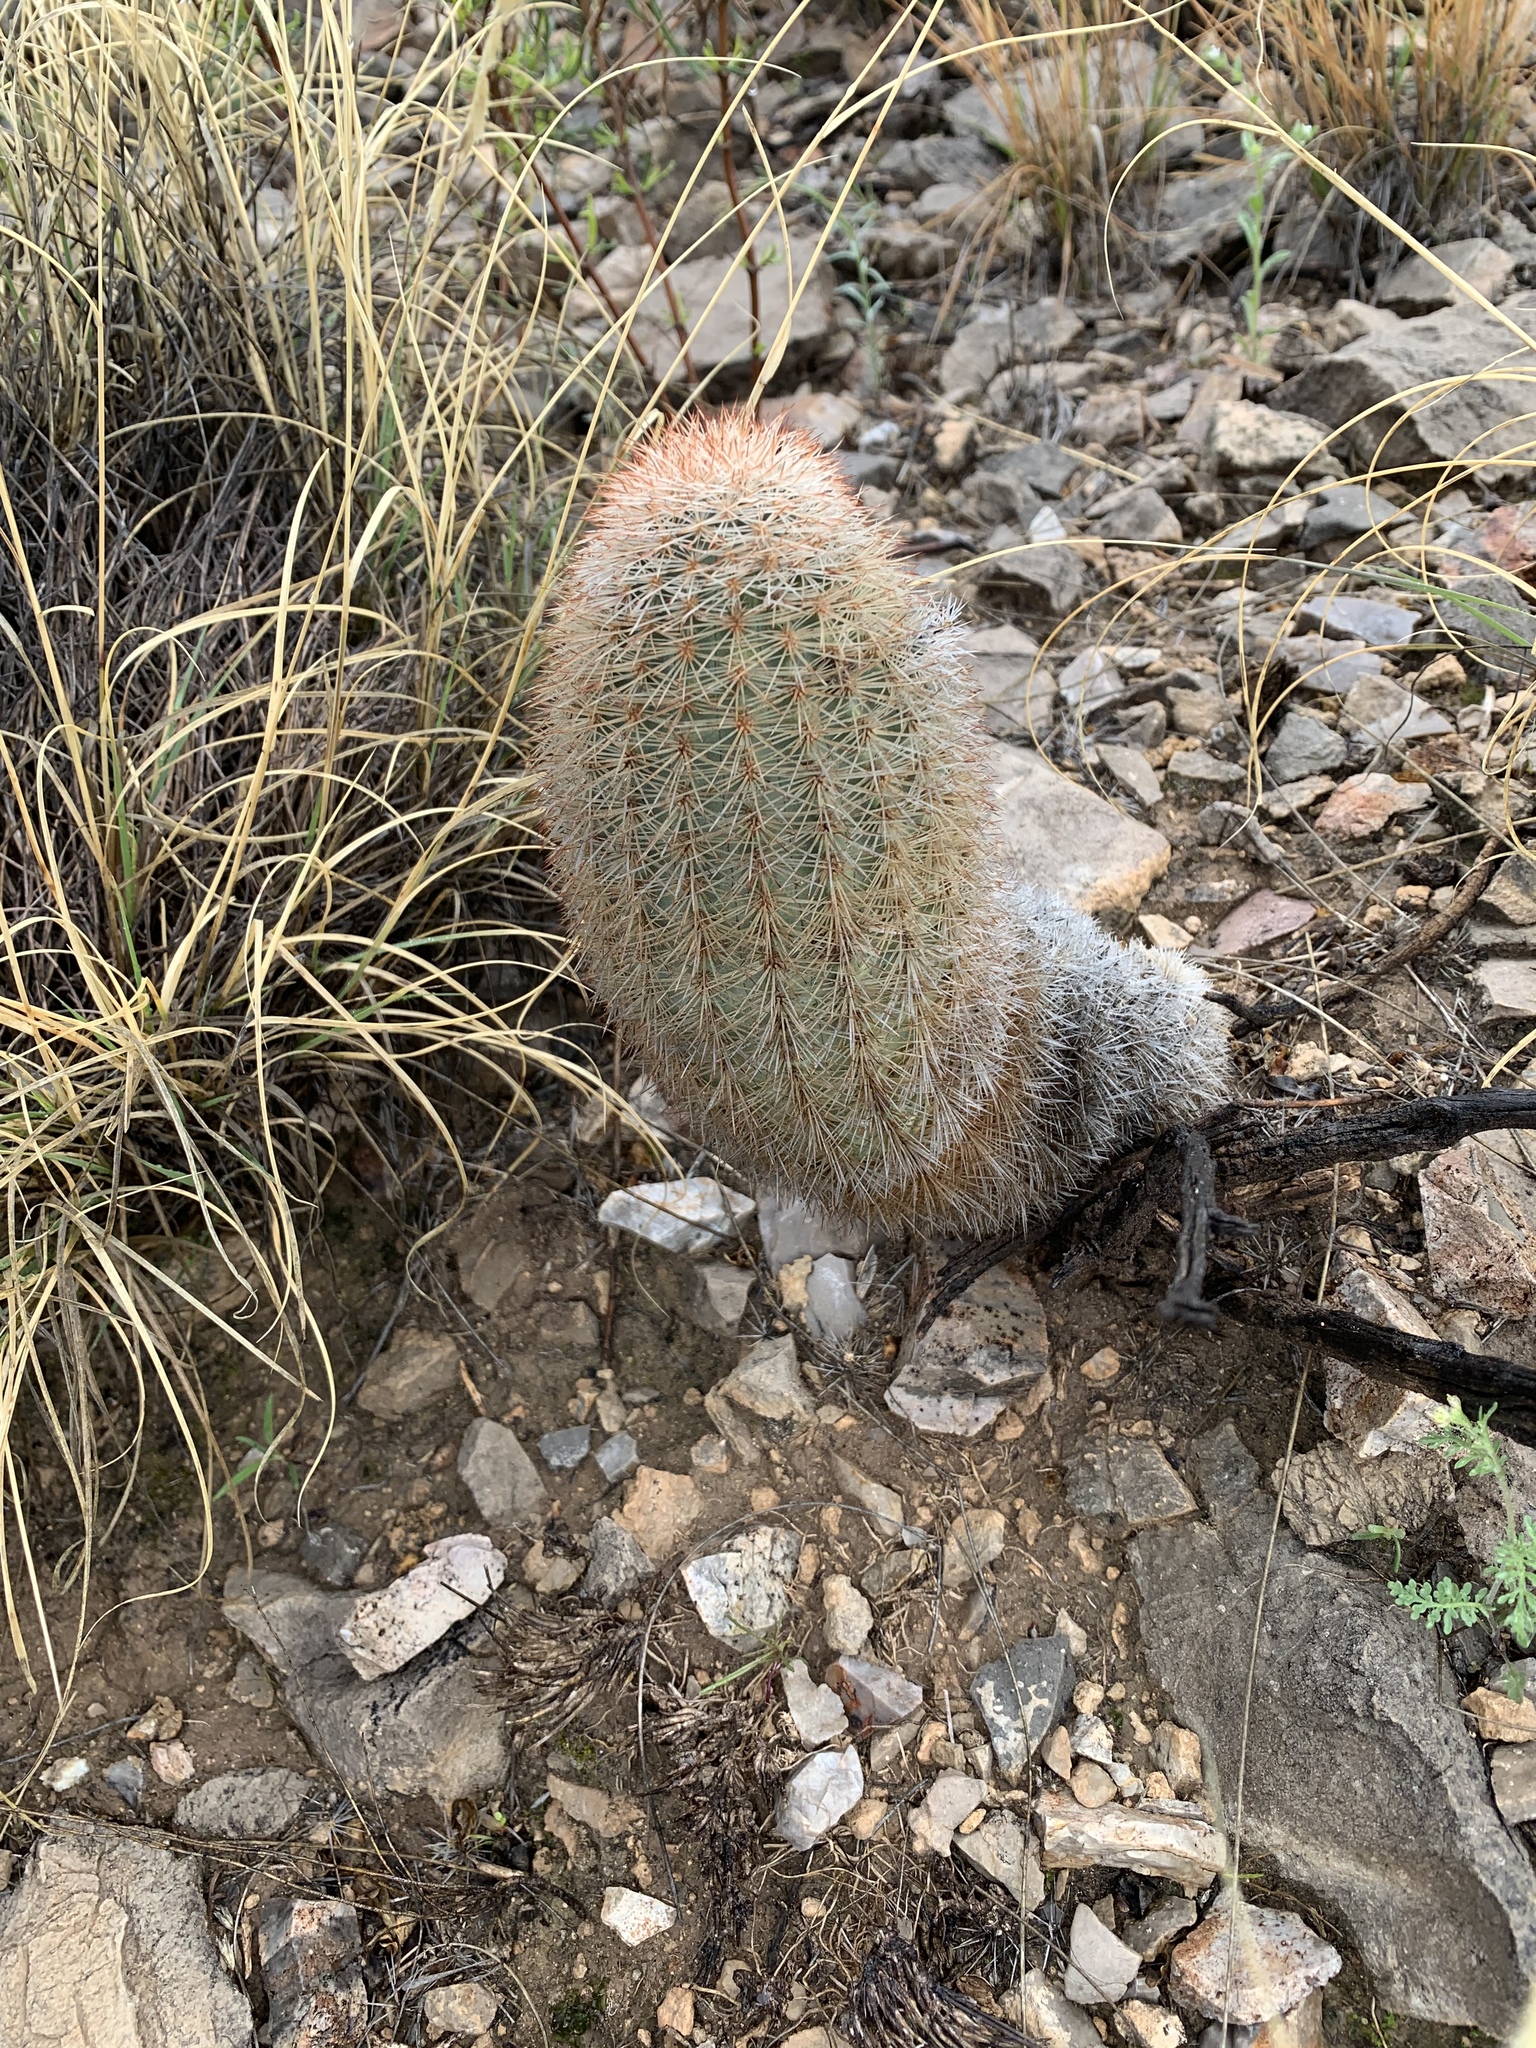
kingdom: Plantae
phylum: Tracheophyta
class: Magnoliopsida
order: Caryophyllales
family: Cactaceae
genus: Echinocereus
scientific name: Echinocereus dasyacanthus
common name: Spiny hedgehog cactus
